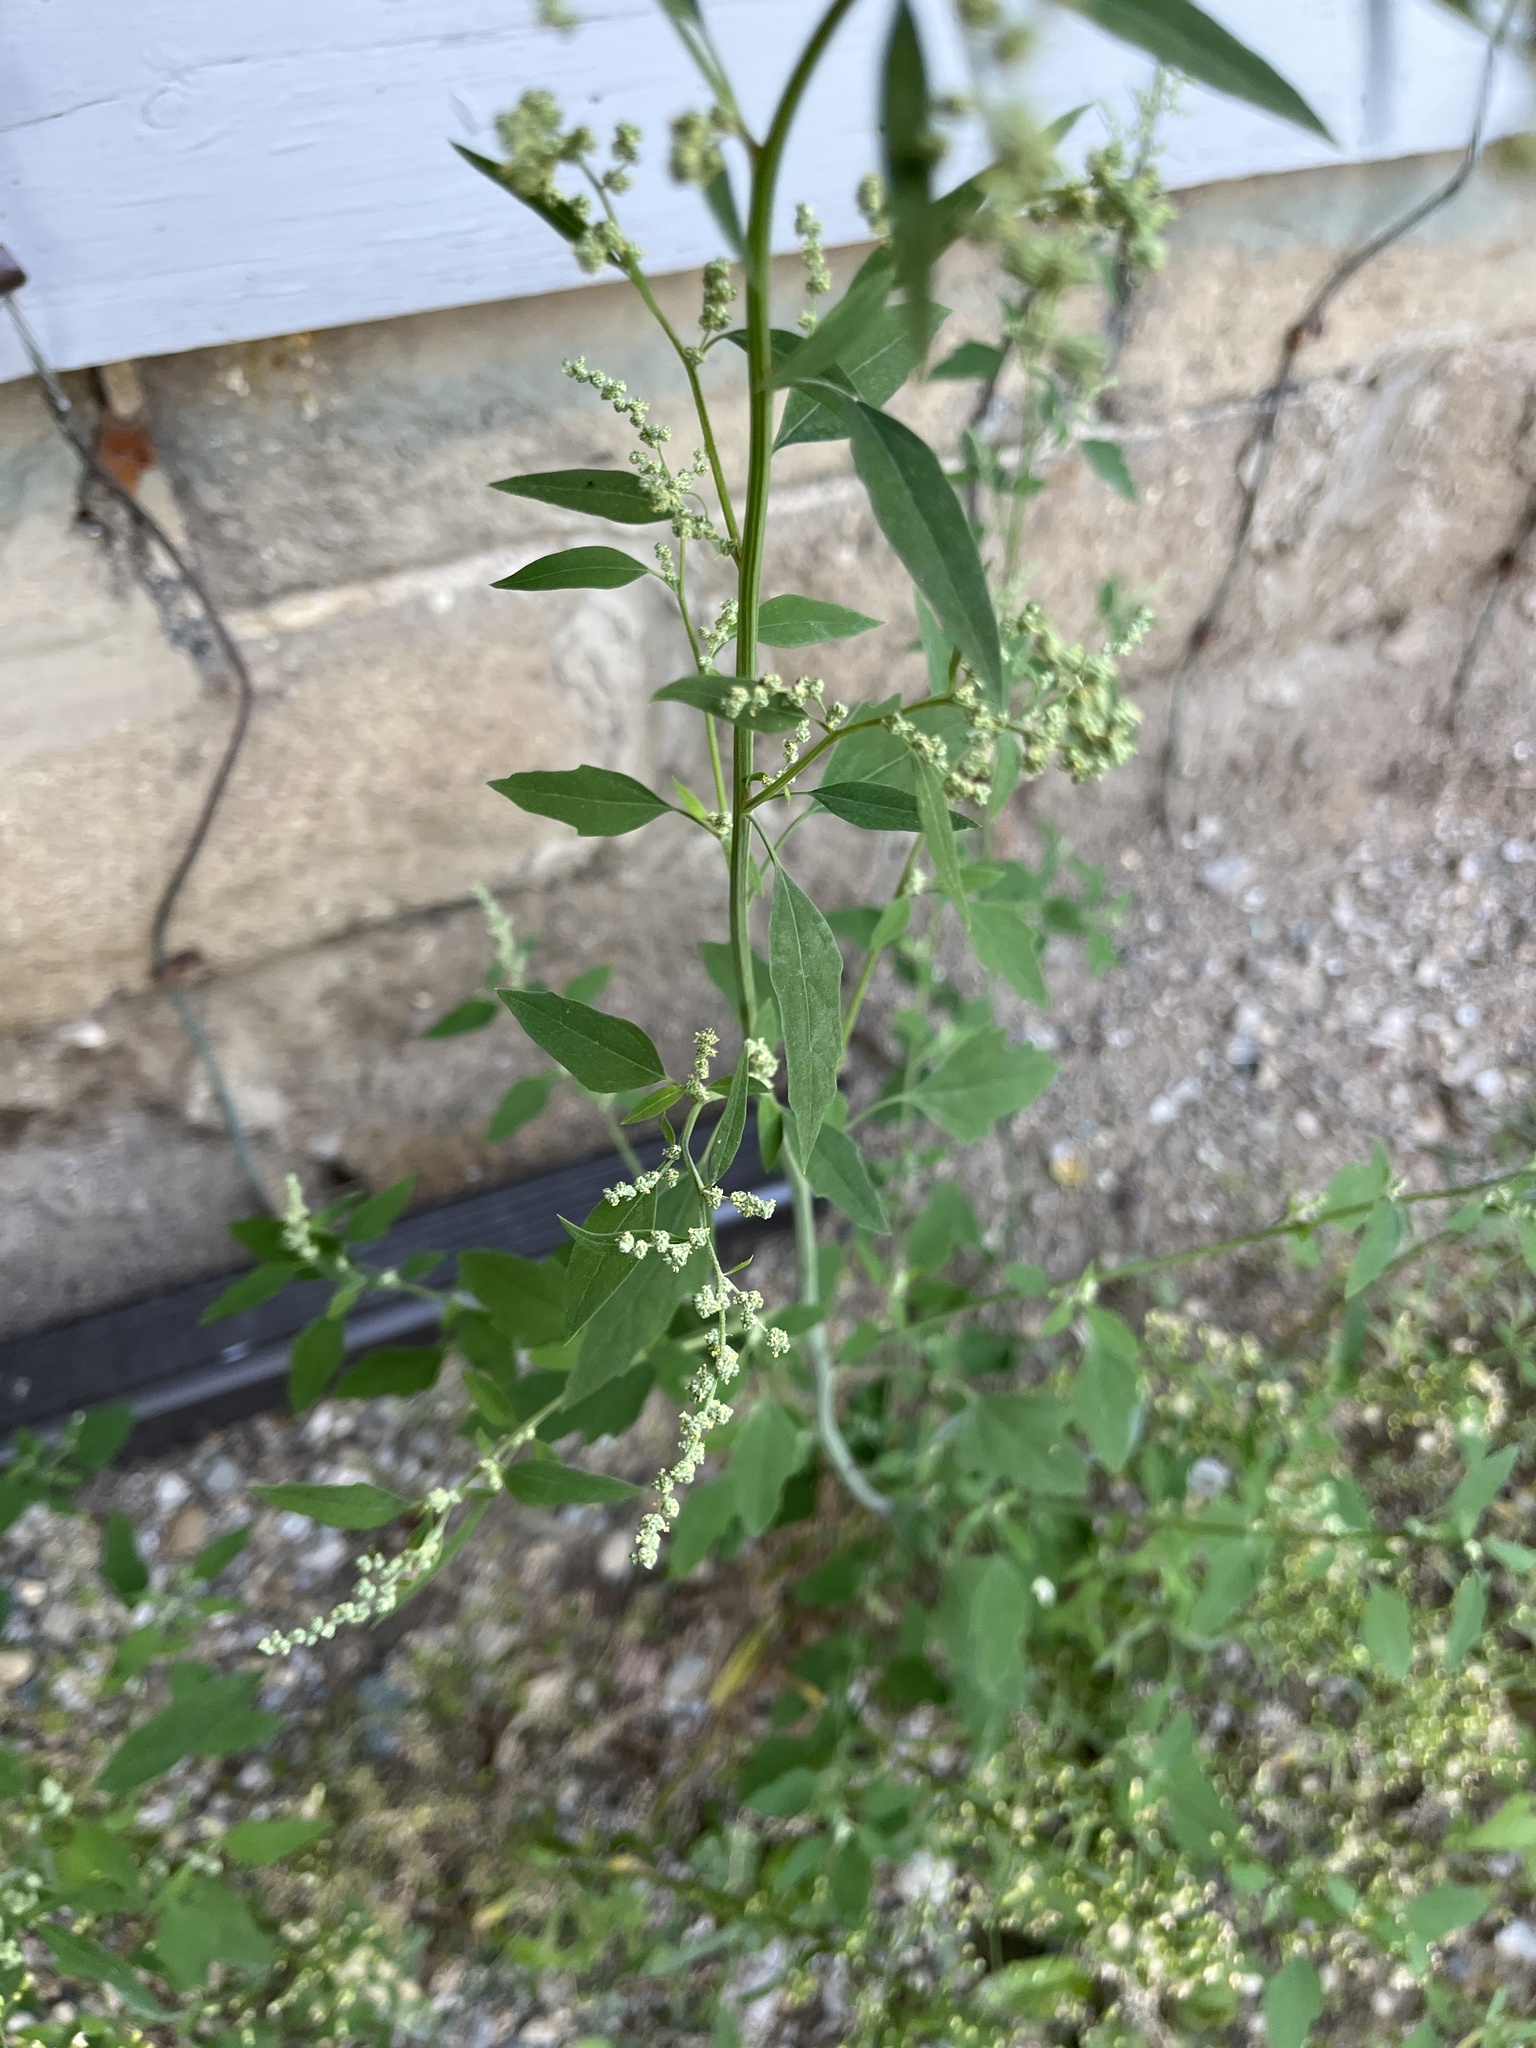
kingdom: Plantae
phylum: Tracheophyta
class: Magnoliopsida
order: Caryophyllales
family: Amaranthaceae
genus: Chenopodium
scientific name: Chenopodium album
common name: Fat-hen
